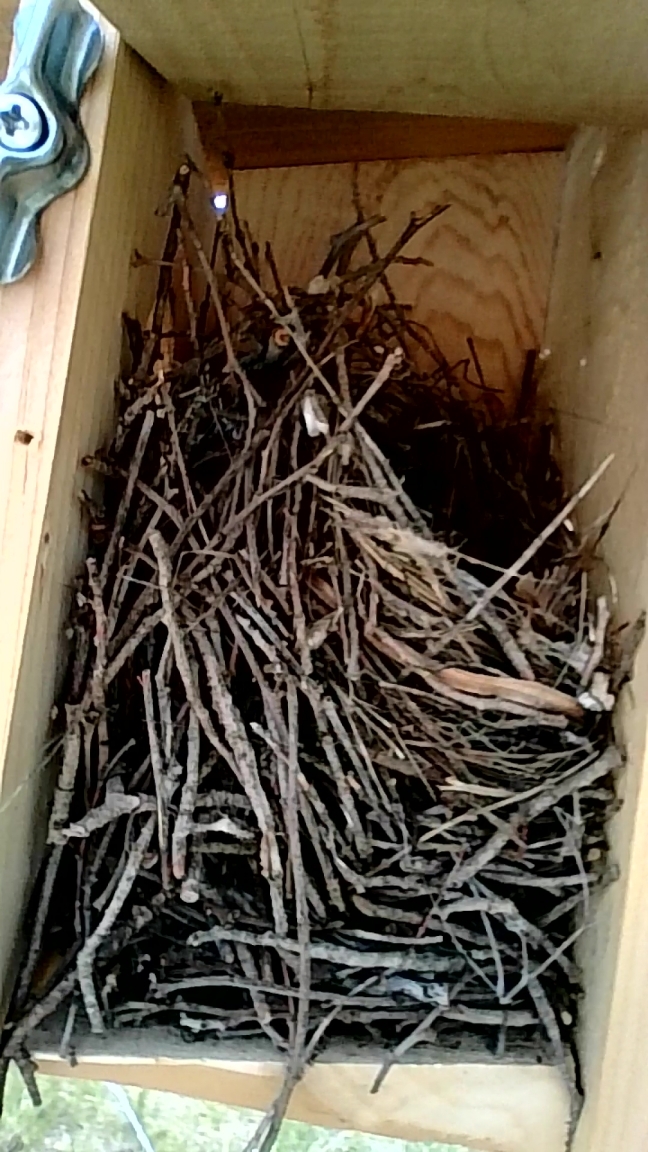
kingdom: Animalia
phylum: Chordata
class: Aves
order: Passeriformes
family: Troglodytidae
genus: Troglodytes
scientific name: Troglodytes aedon
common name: House wren
